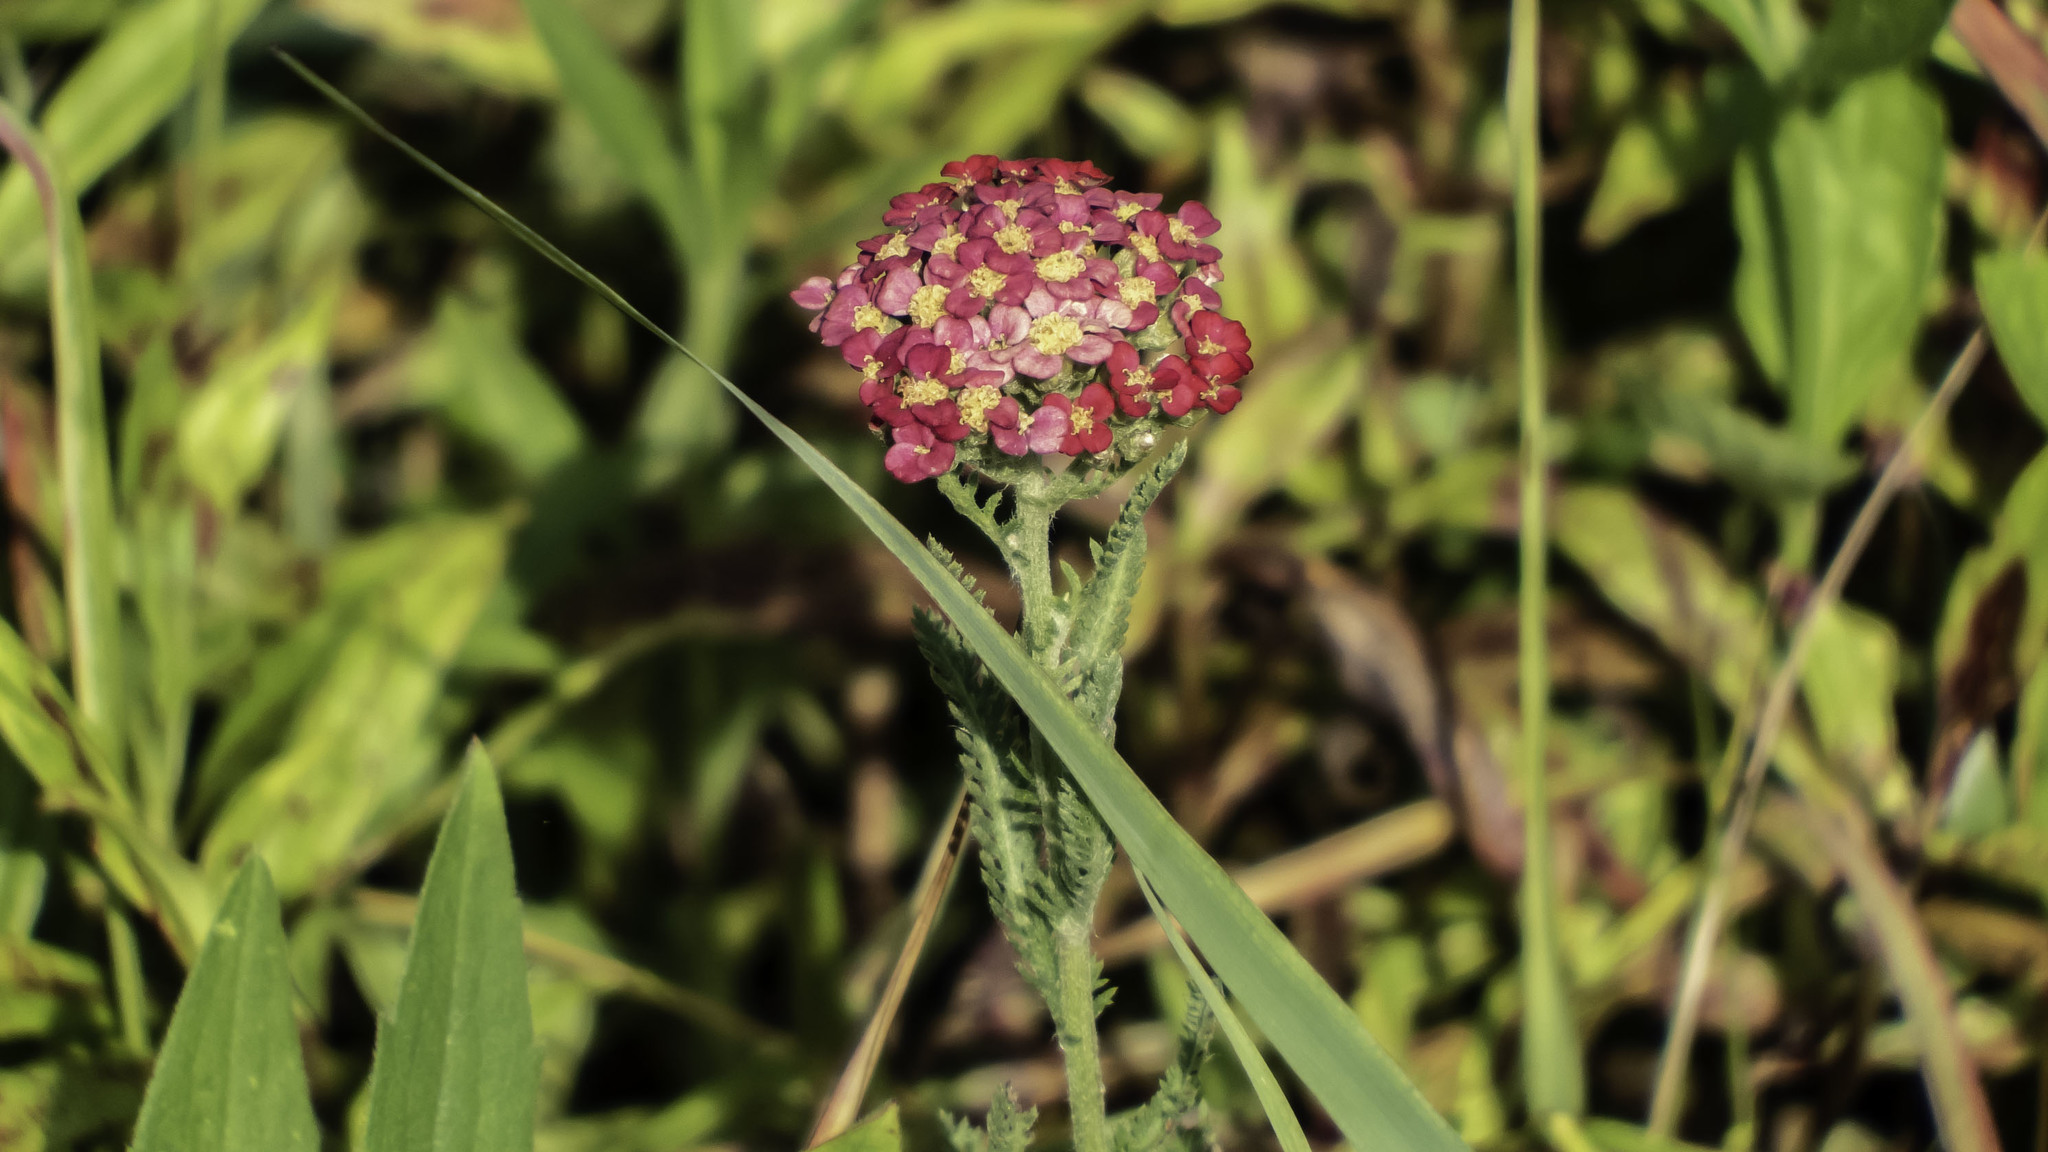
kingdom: Plantae
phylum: Tracheophyta
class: Magnoliopsida
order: Asterales
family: Asteraceae
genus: Achillea
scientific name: Achillea millefolium
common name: Yarrow
